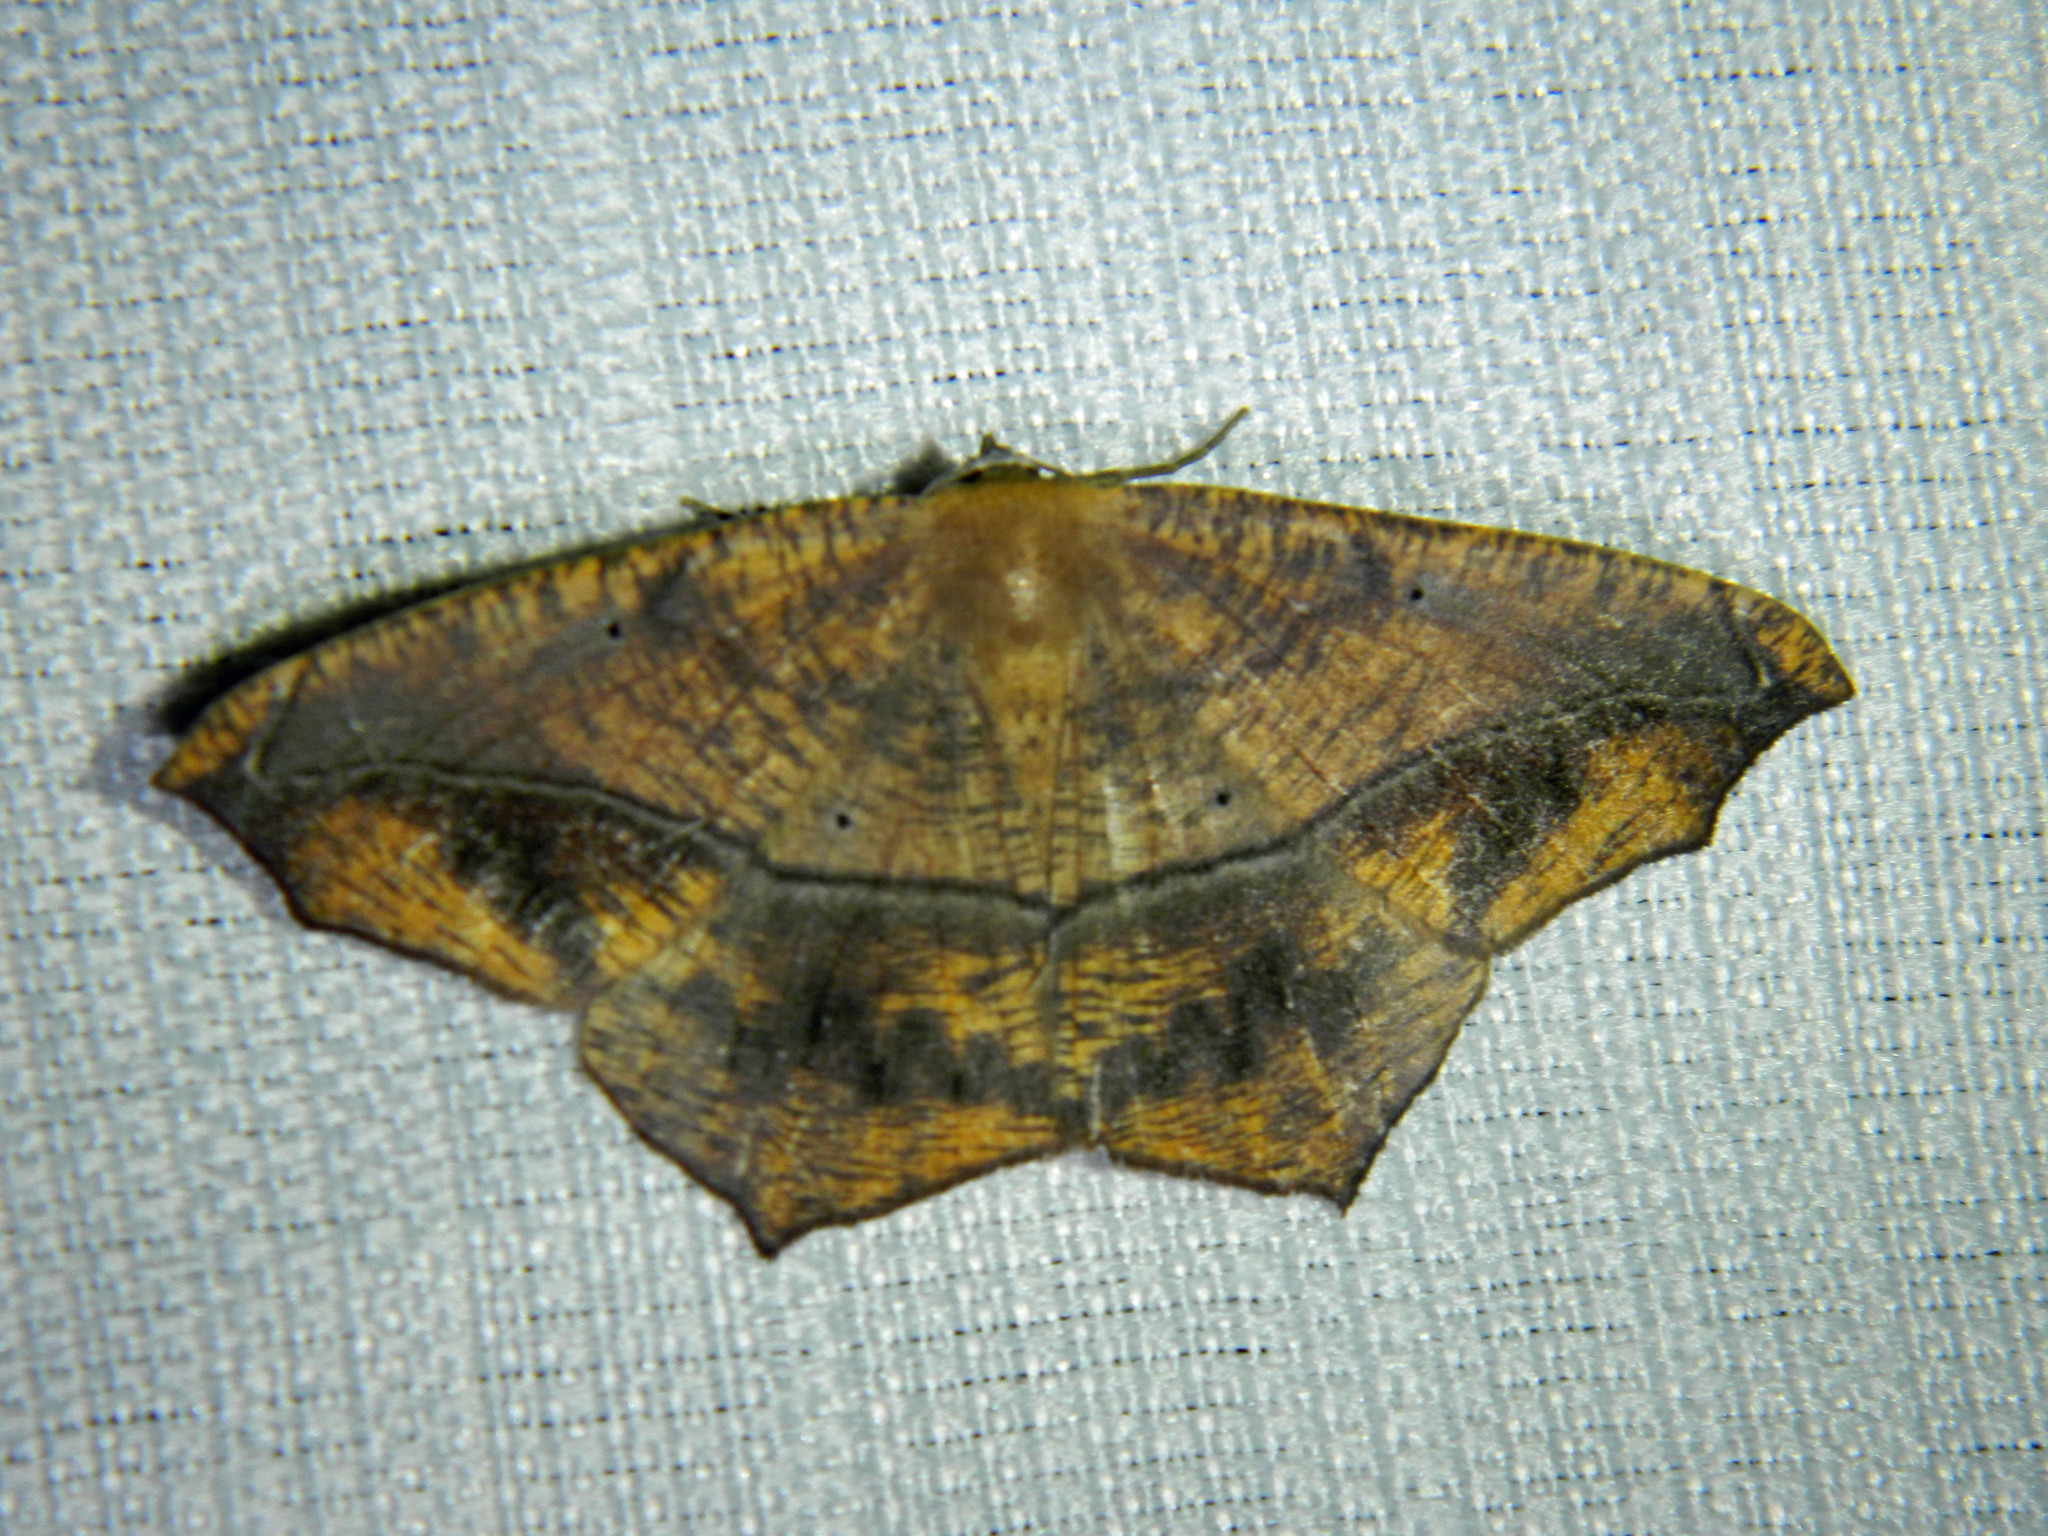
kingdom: Animalia
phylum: Arthropoda
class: Insecta
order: Lepidoptera
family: Geometridae
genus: Prochoerodes
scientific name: Prochoerodes lineola
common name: Large maple spanworm
